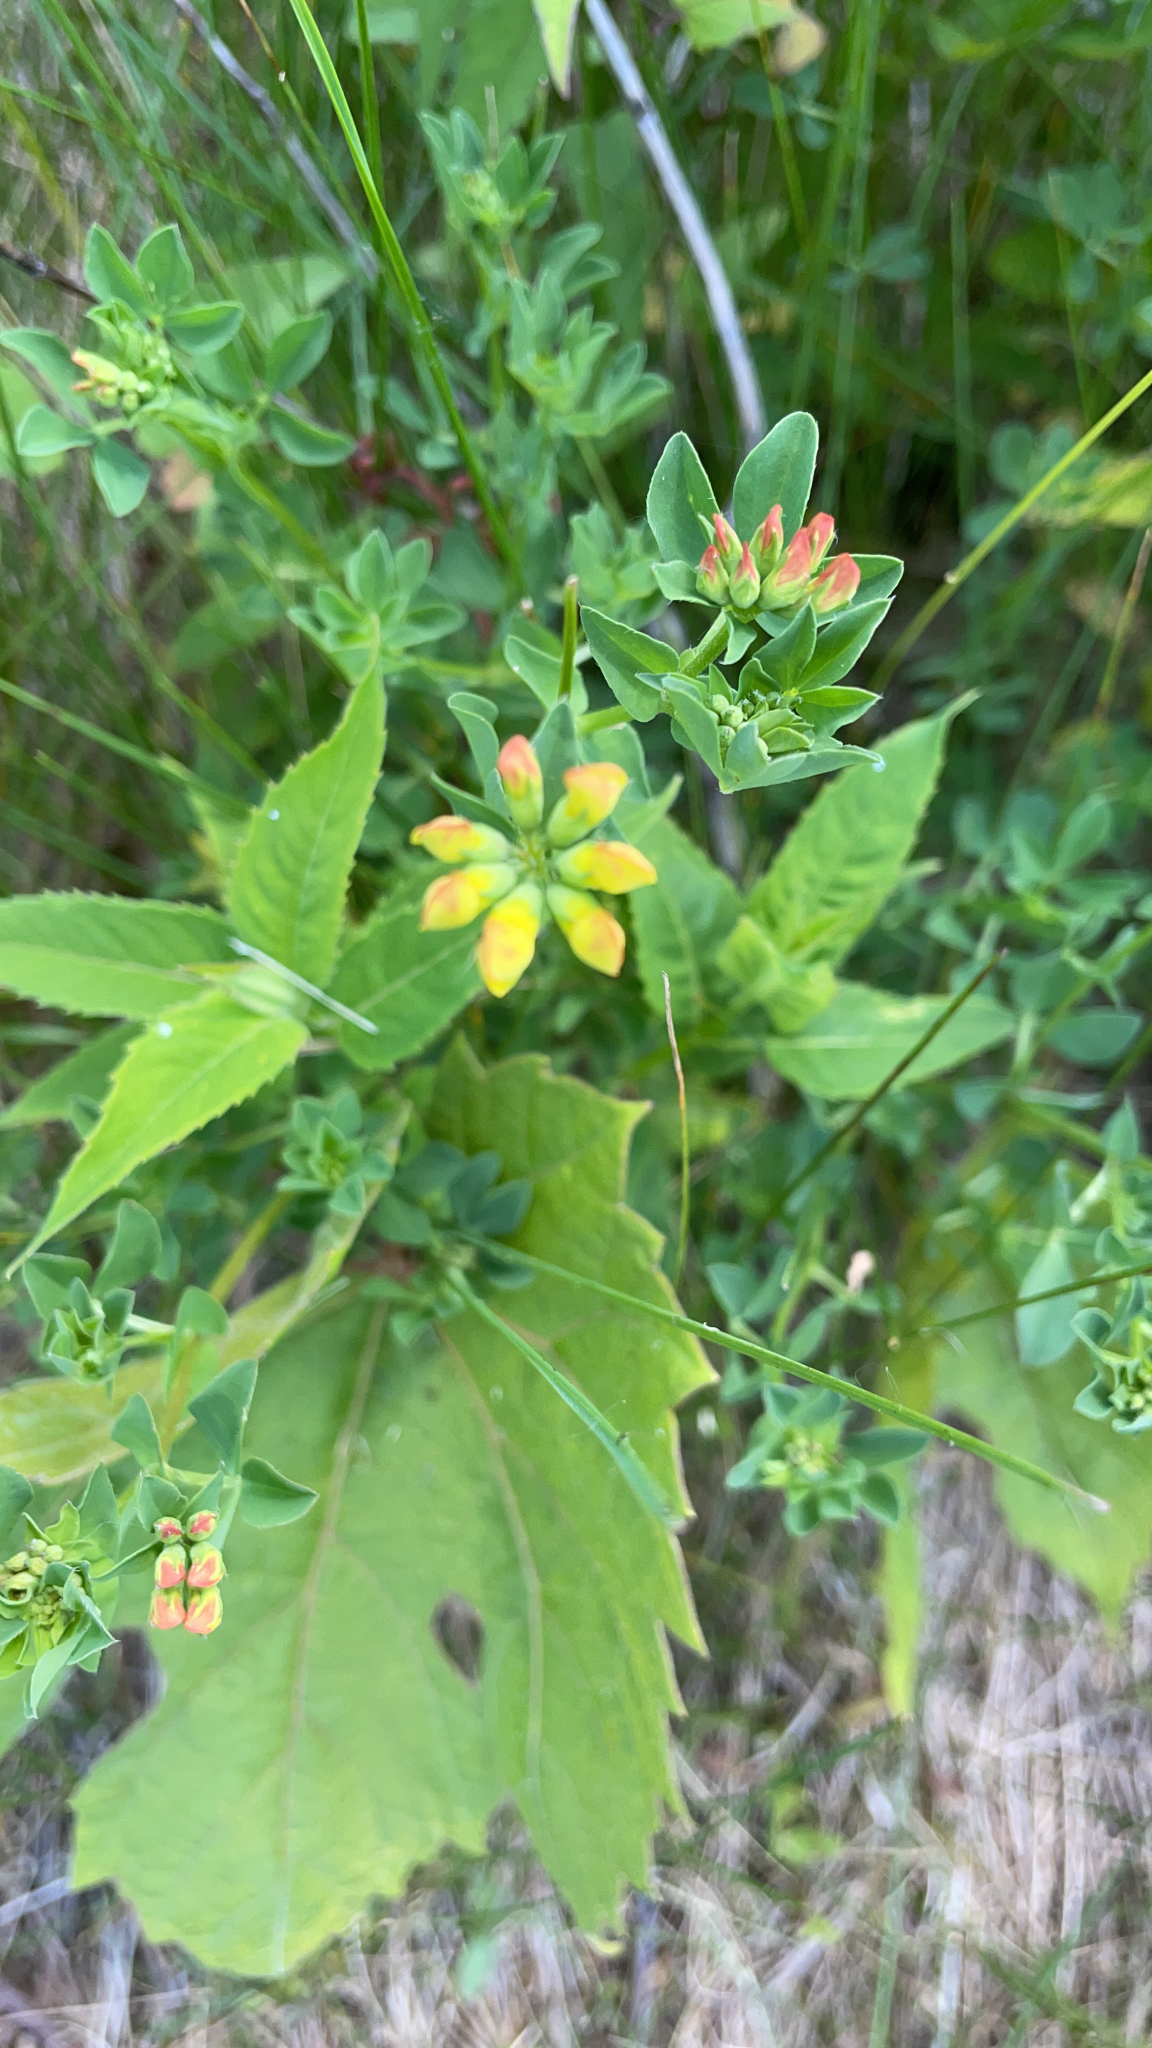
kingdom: Plantae
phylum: Tracheophyta
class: Magnoliopsida
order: Fabales
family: Fabaceae
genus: Lotus
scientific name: Lotus corniculatus
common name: Common bird's-foot-trefoil
